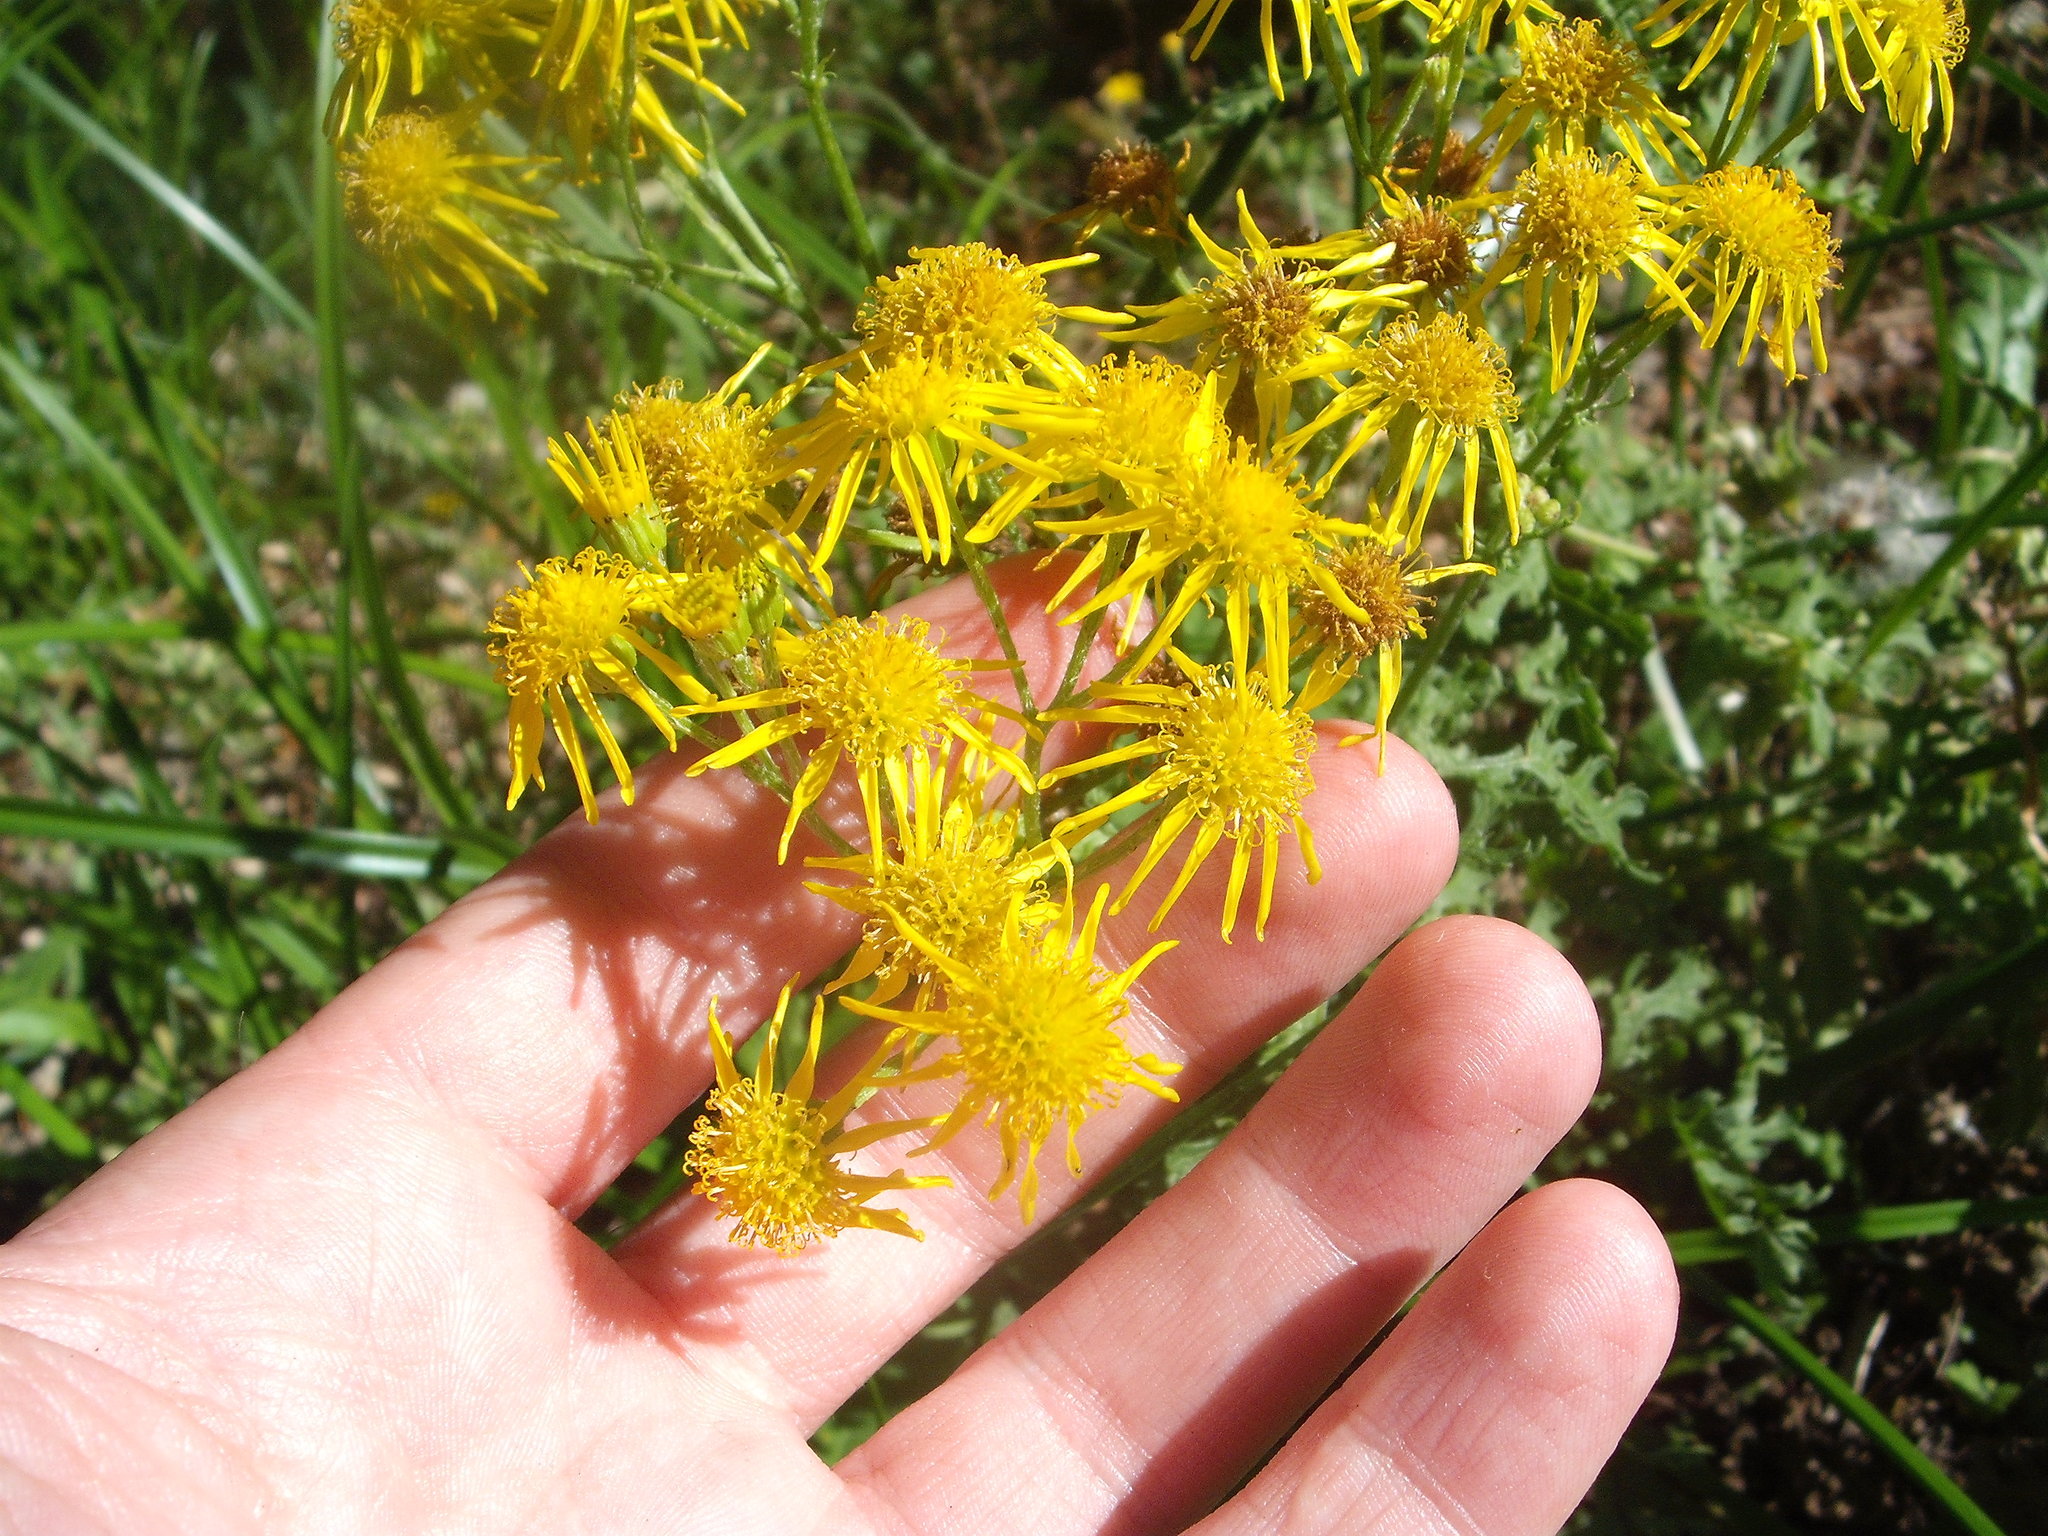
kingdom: Plantae
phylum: Tracheophyta
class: Magnoliopsida
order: Asterales
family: Asteraceae
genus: Jacobaea
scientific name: Jacobaea vulgaris
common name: Stinking willie
